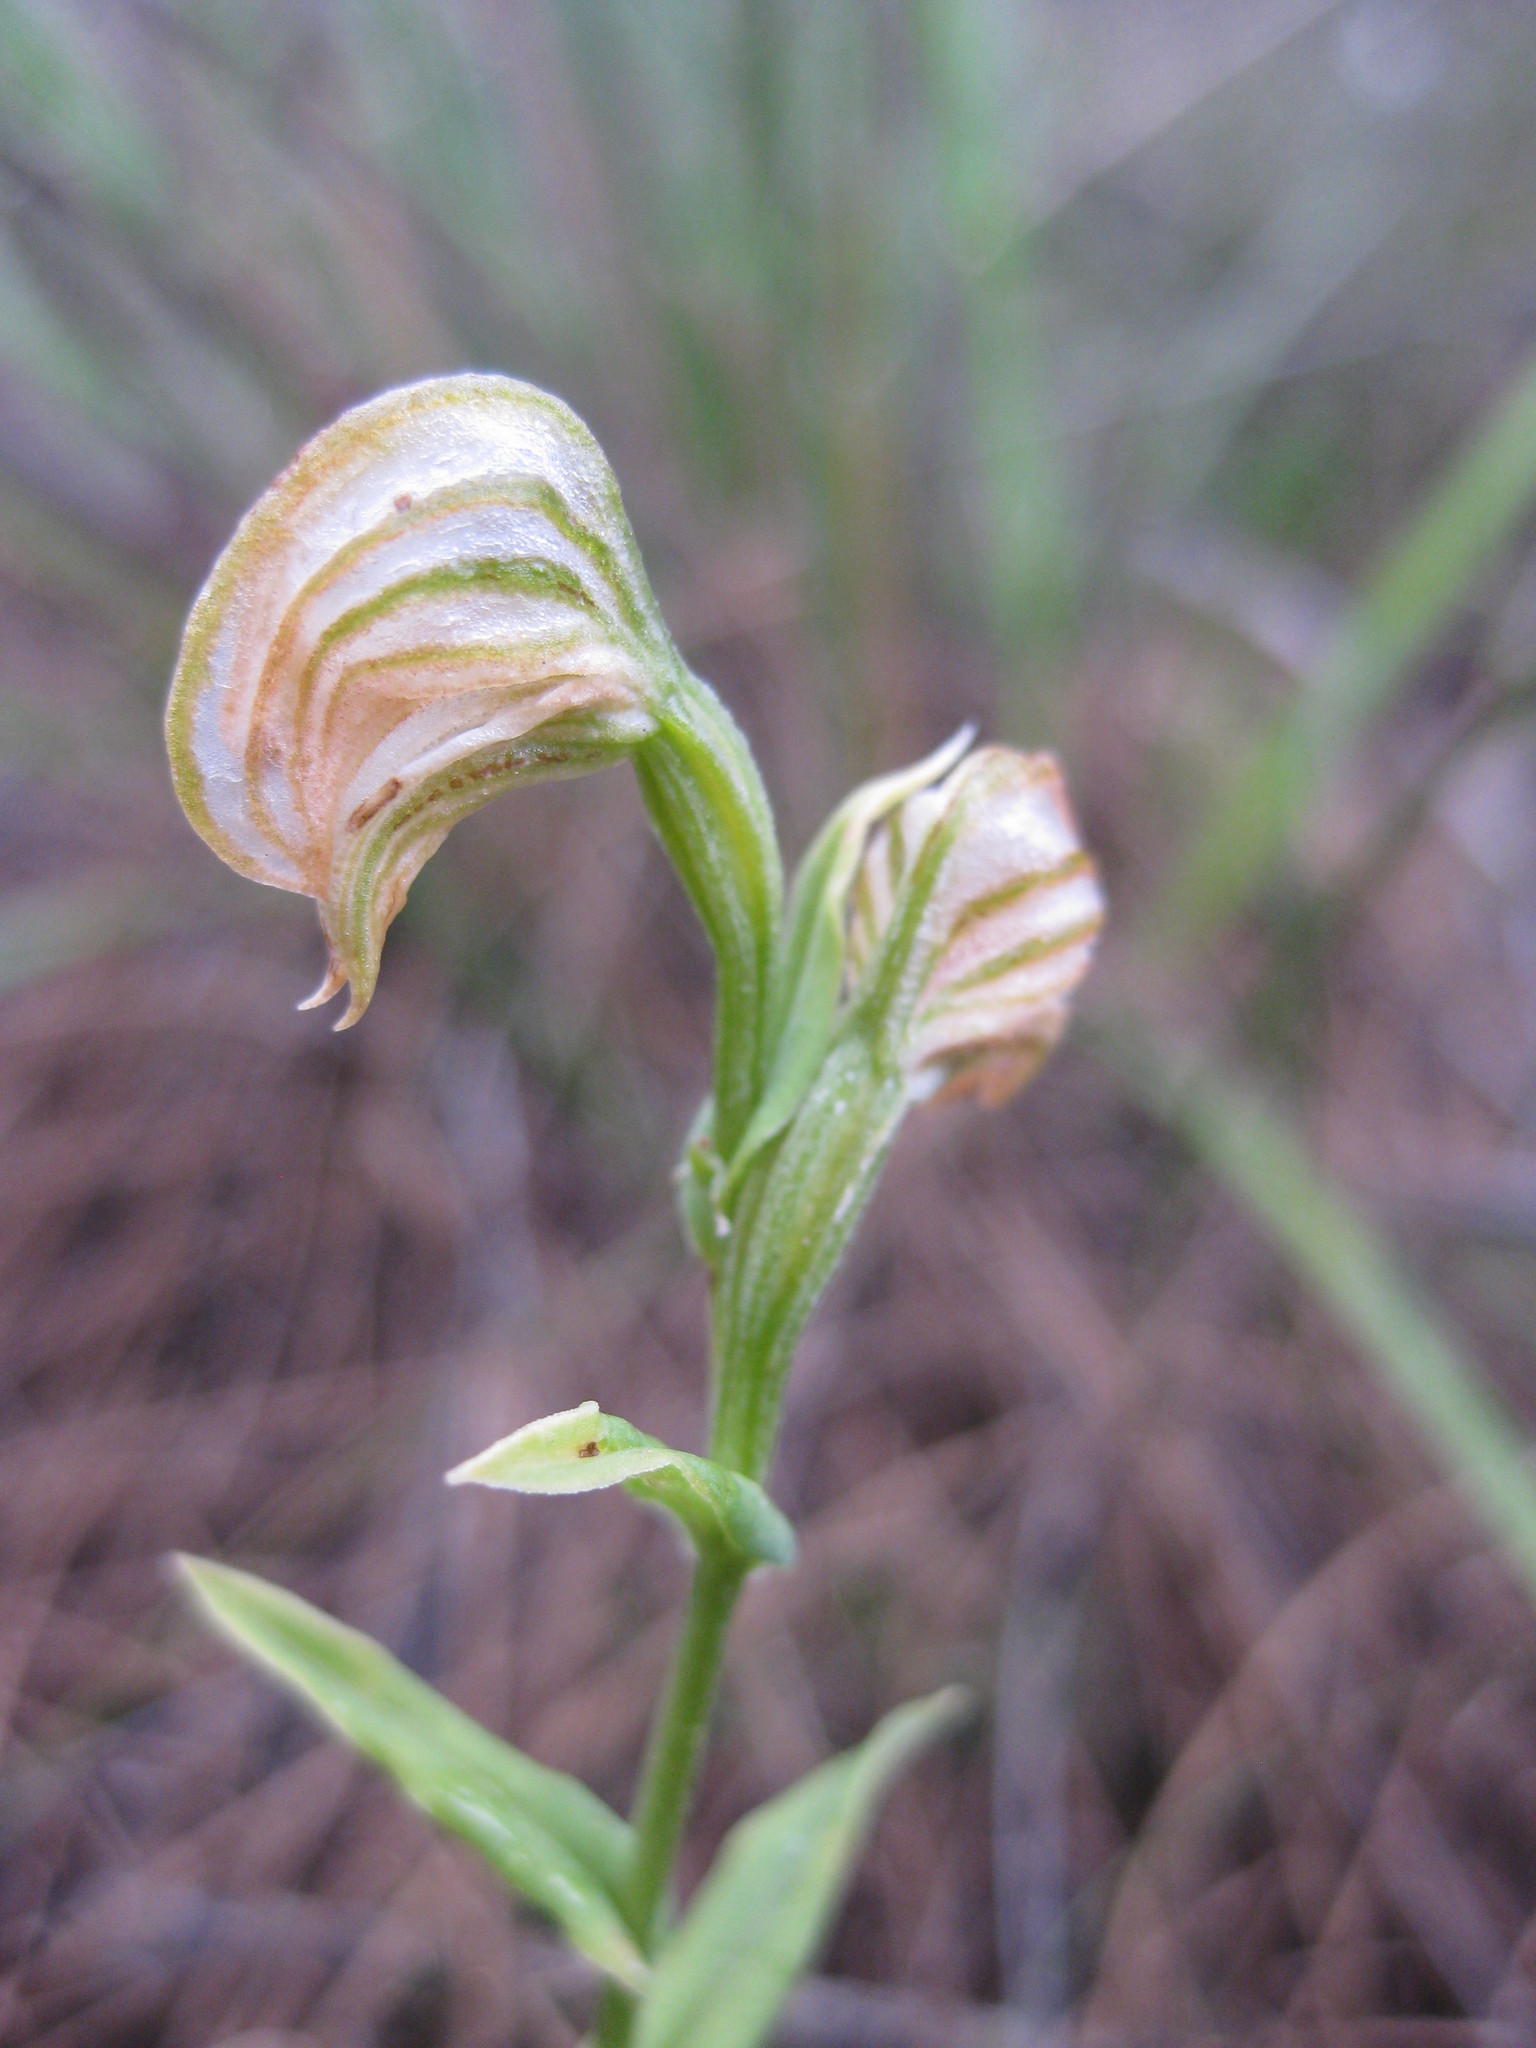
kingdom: Plantae
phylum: Tracheophyta
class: Liliopsida
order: Asparagales
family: Orchidaceae
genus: Pterostylis
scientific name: Pterostylis vittata
